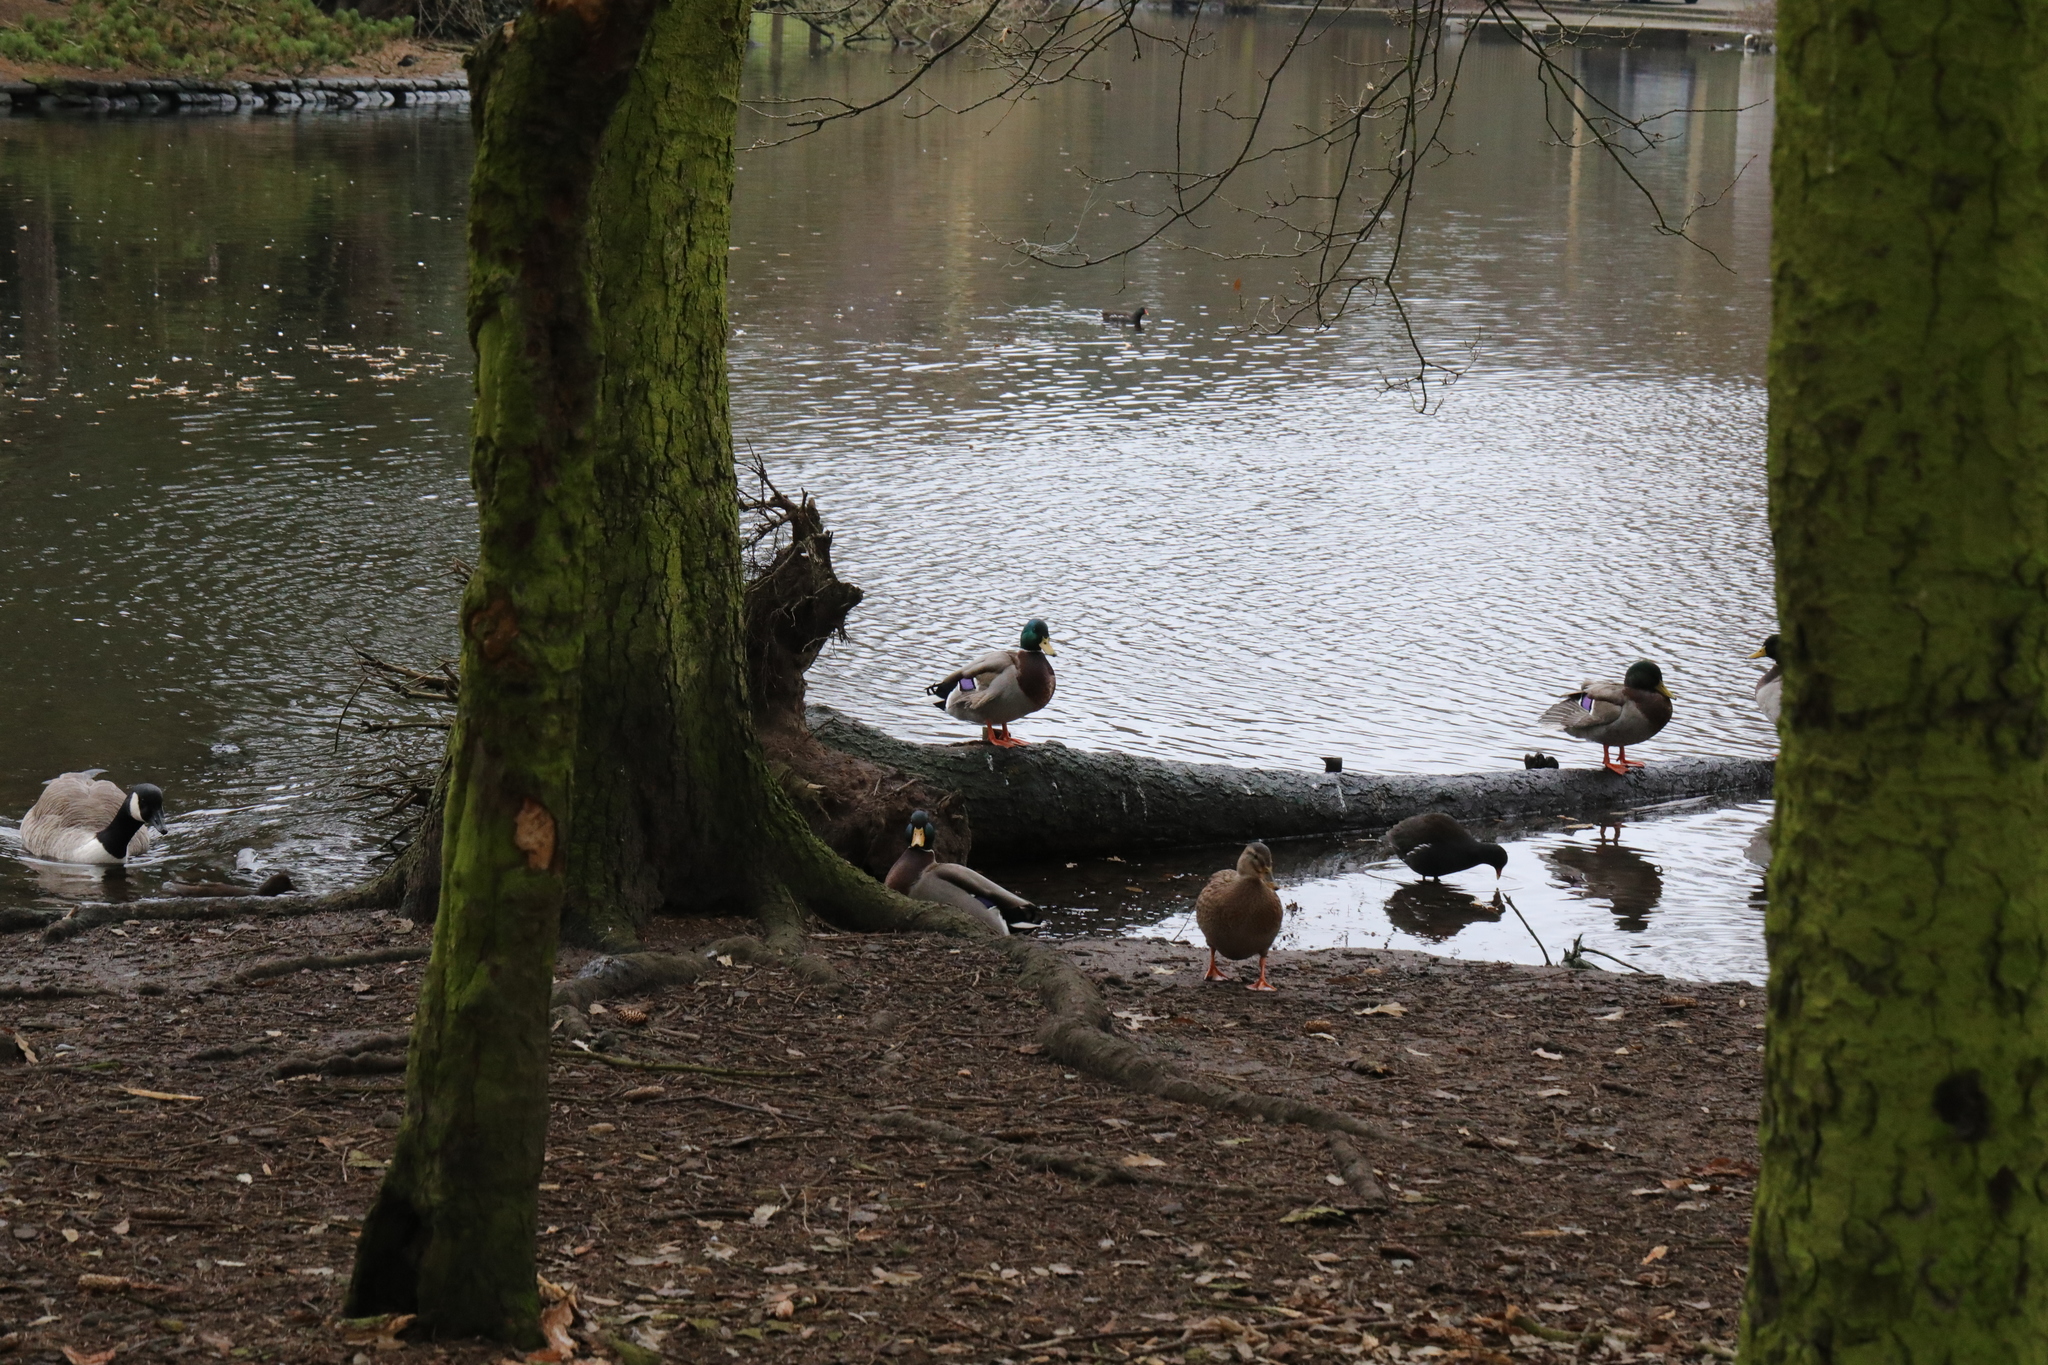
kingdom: Animalia
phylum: Chordata
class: Aves
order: Anseriformes
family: Anatidae
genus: Anas
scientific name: Anas platyrhynchos
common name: Mallard
